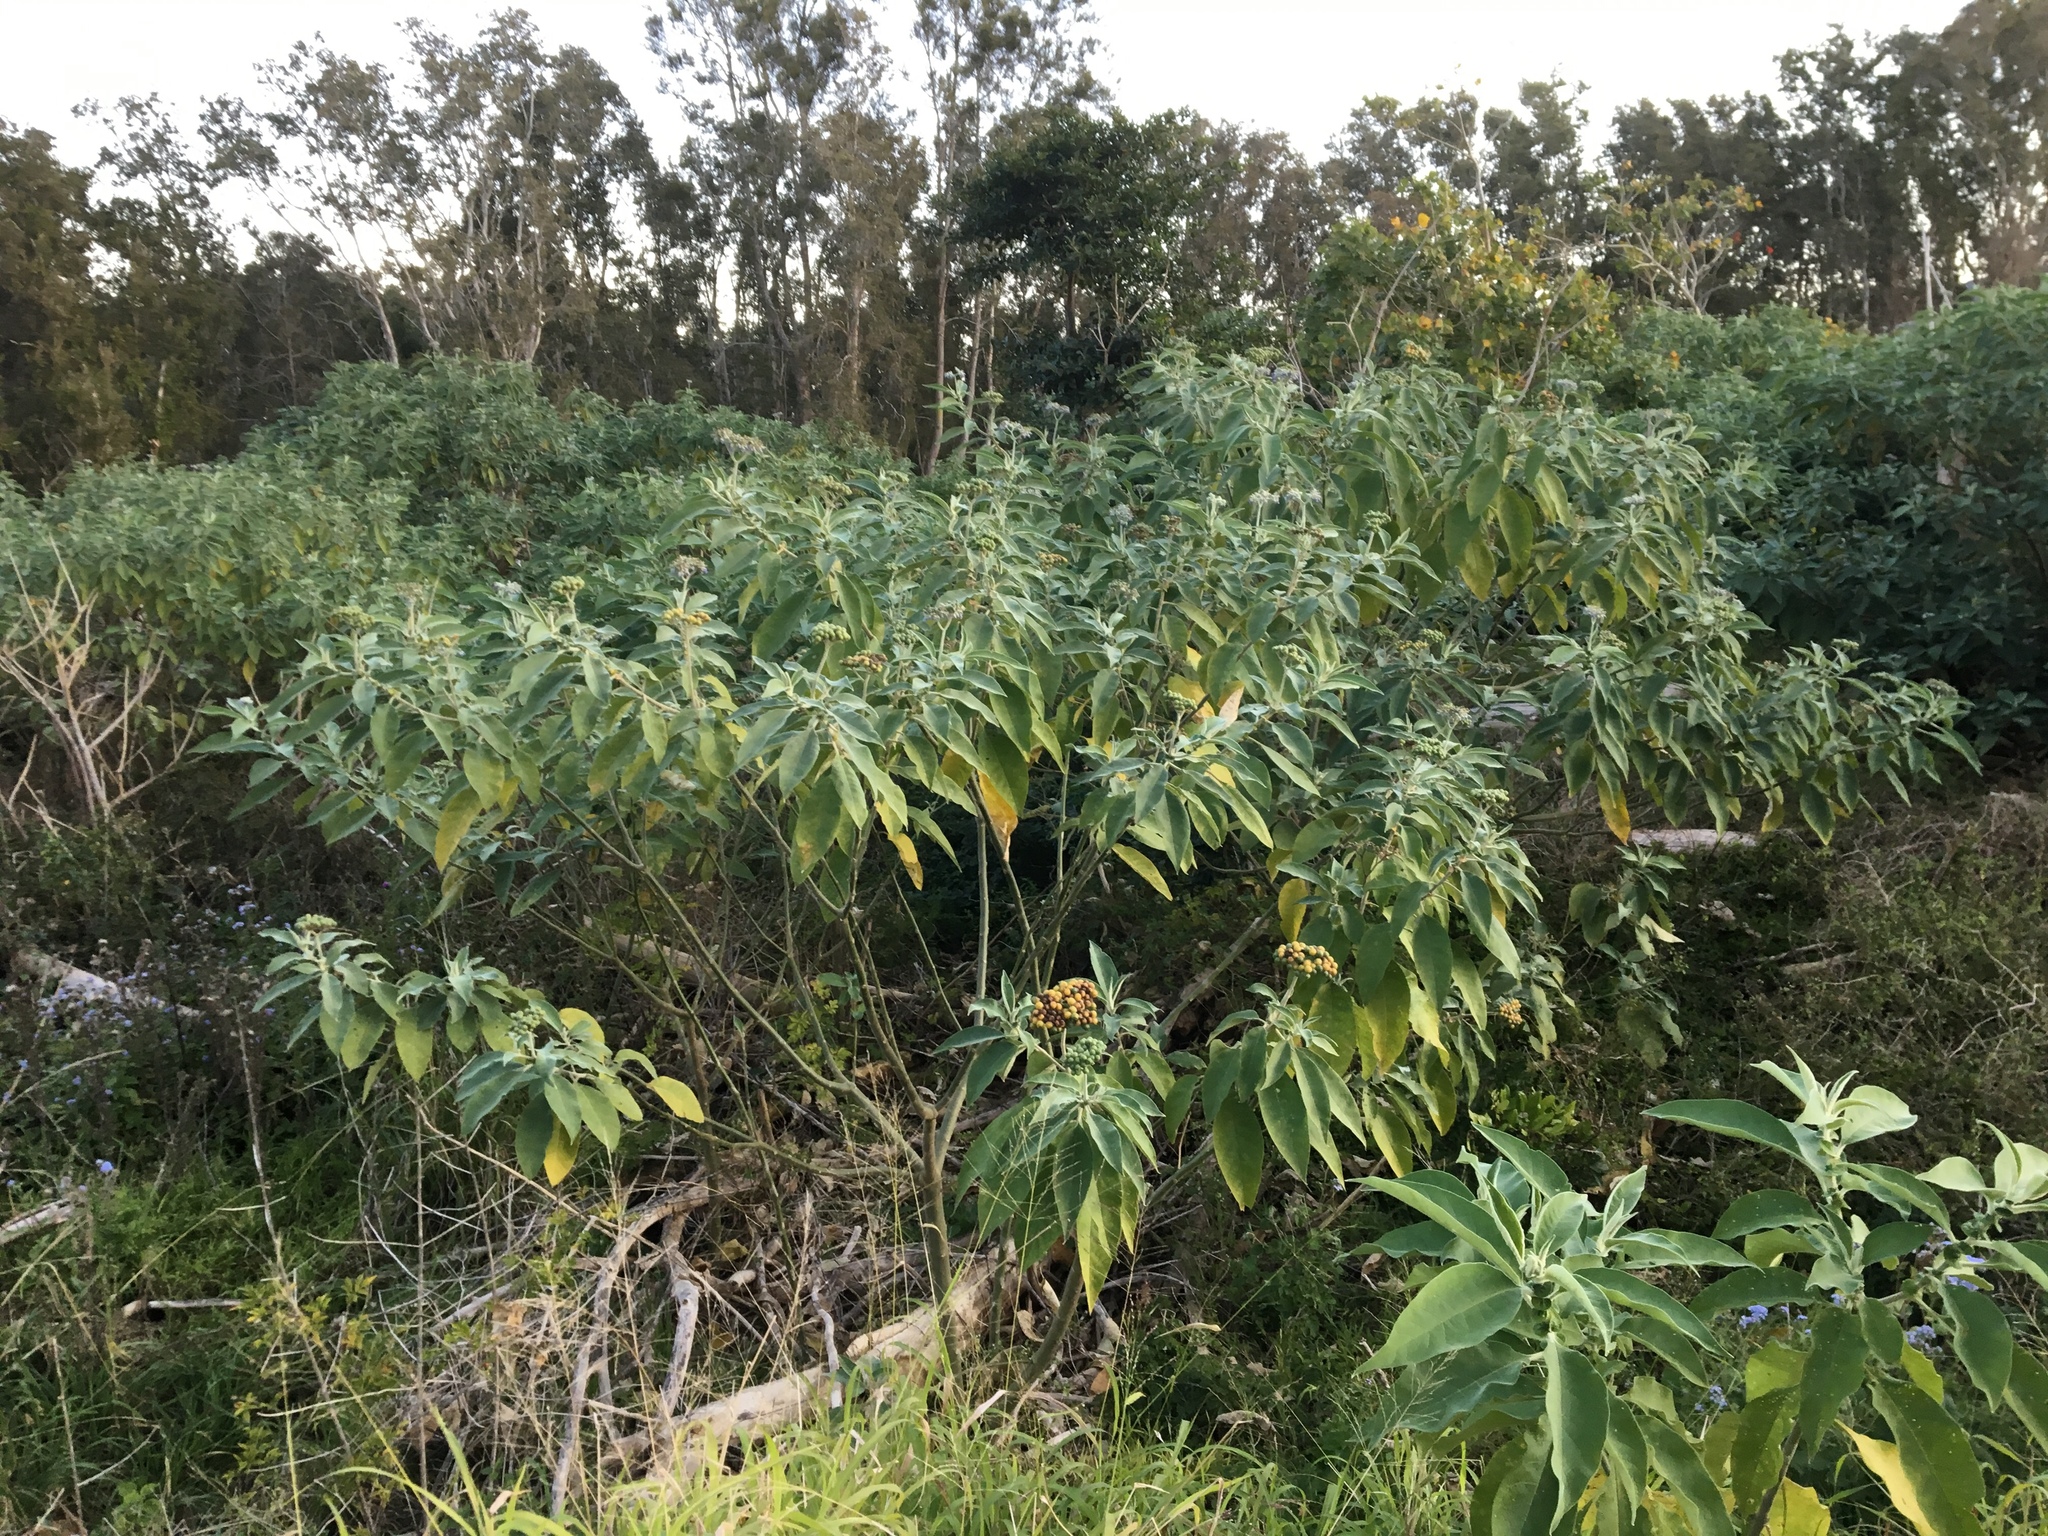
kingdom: Plantae
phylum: Tracheophyta
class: Magnoliopsida
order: Solanales
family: Solanaceae
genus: Solanum
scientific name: Solanum mauritianum
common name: Earleaf nightshade
